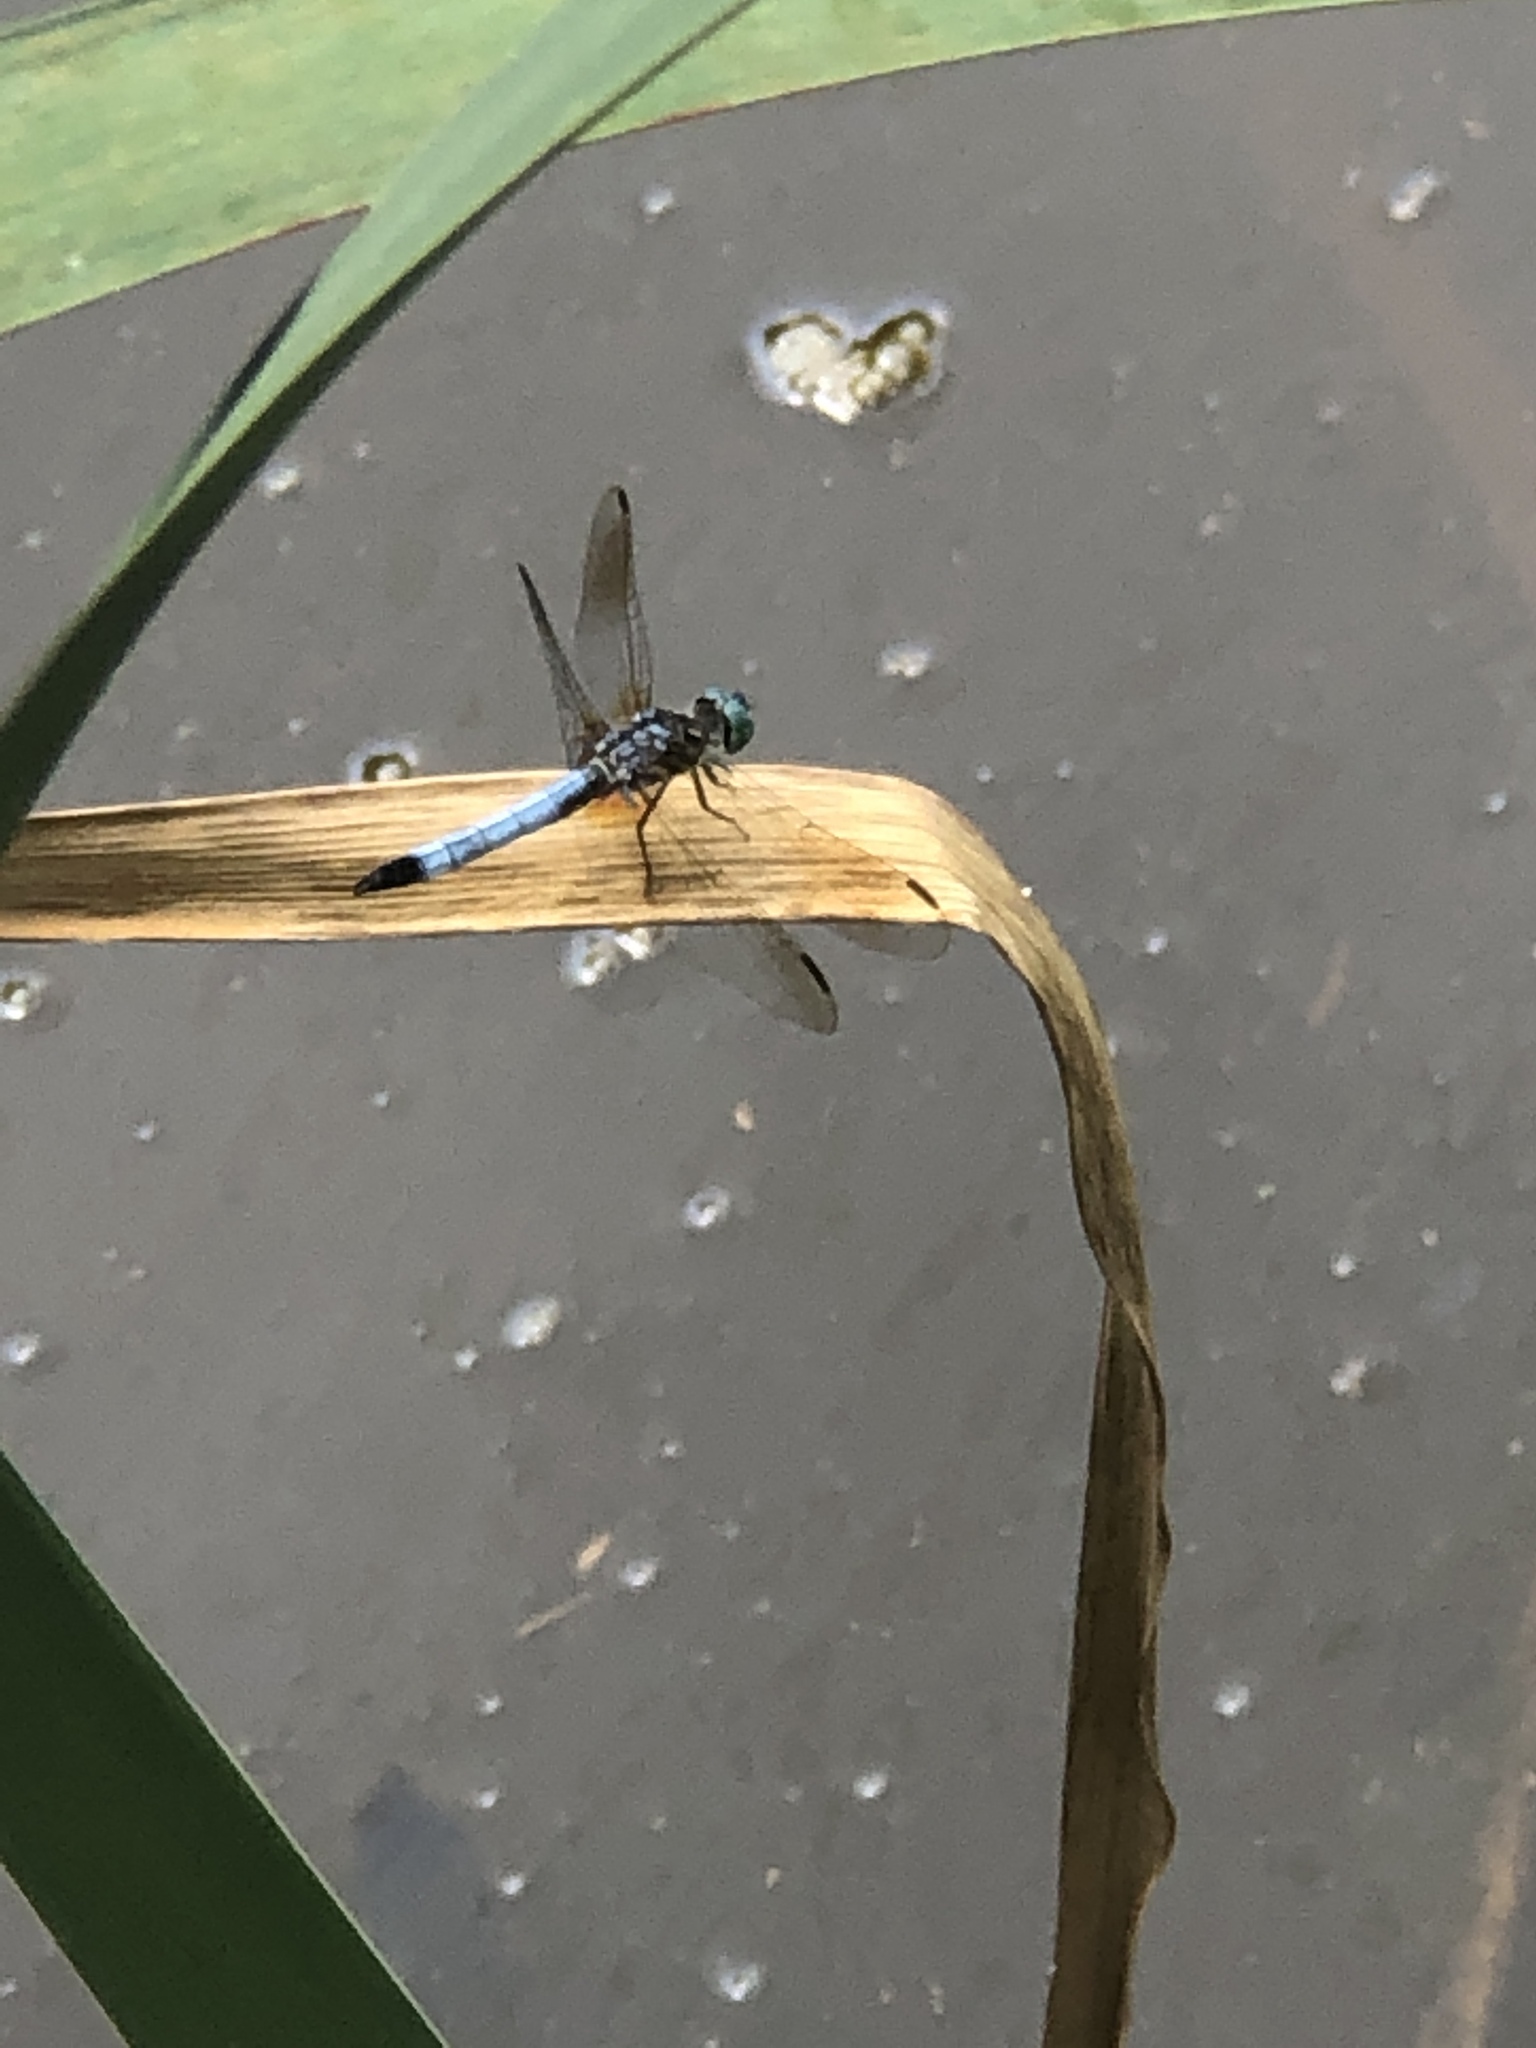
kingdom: Animalia
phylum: Arthropoda
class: Insecta
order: Odonata
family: Libellulidae
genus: Pachydiplax
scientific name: Pachydiplax longipennis
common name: Blue dasher
